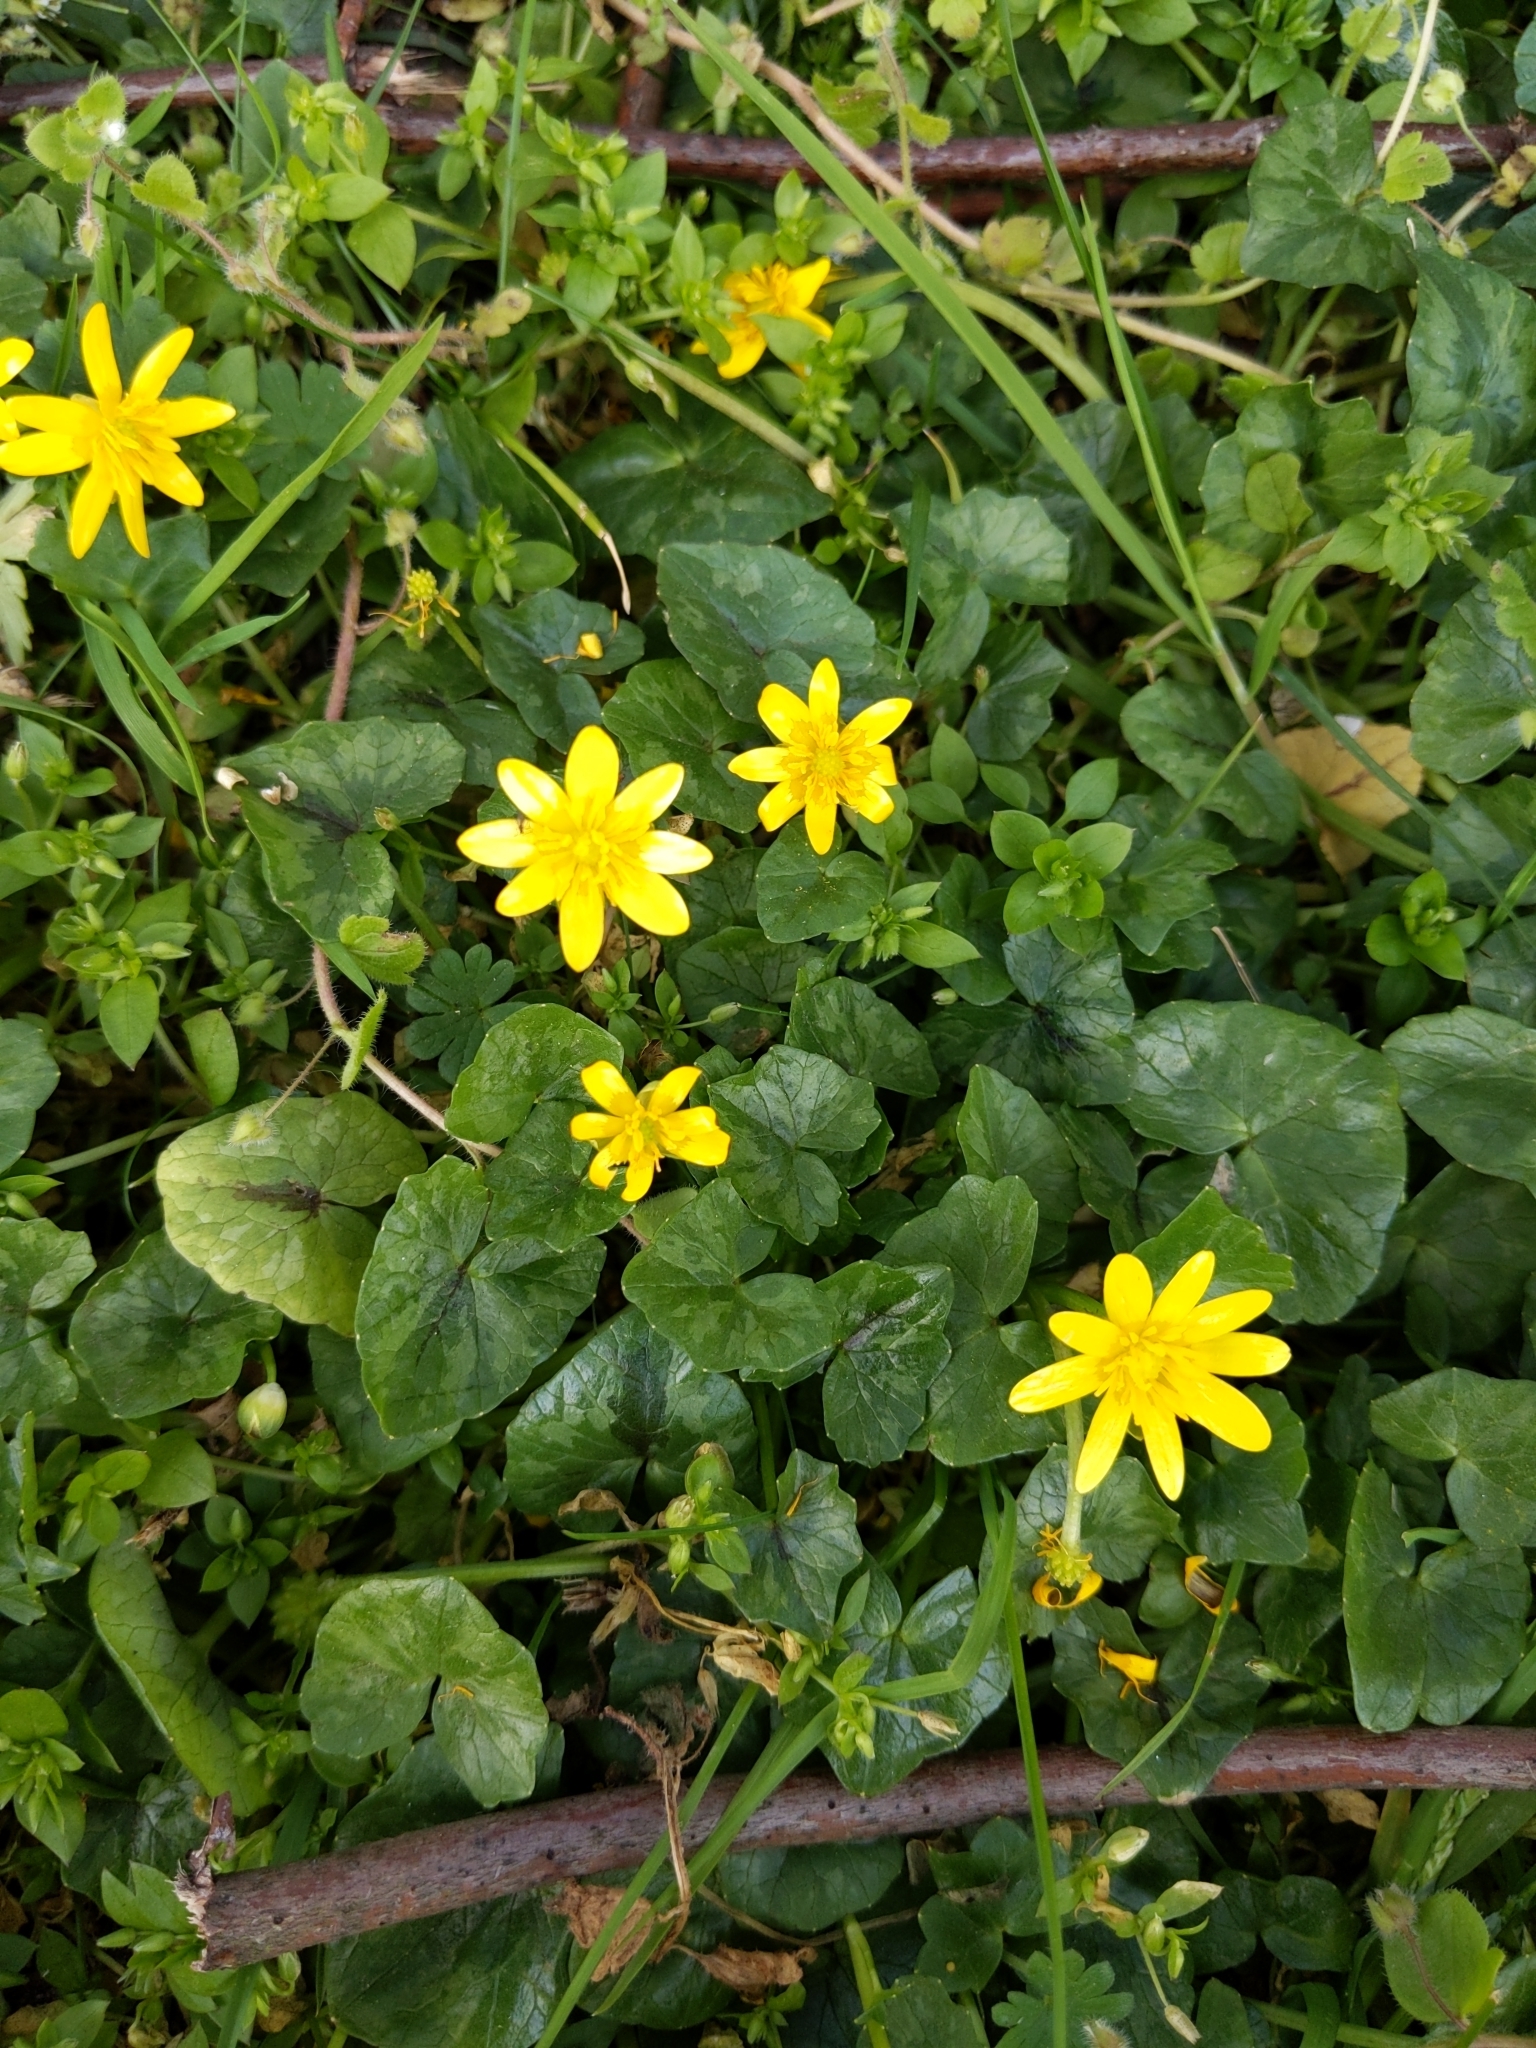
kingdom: Plantae
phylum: Tracheophyta
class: Magnoliopsida
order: Ranunculales
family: Ranunculaceae
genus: Ficaria
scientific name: Ficaria verna
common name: Lesser celandine
